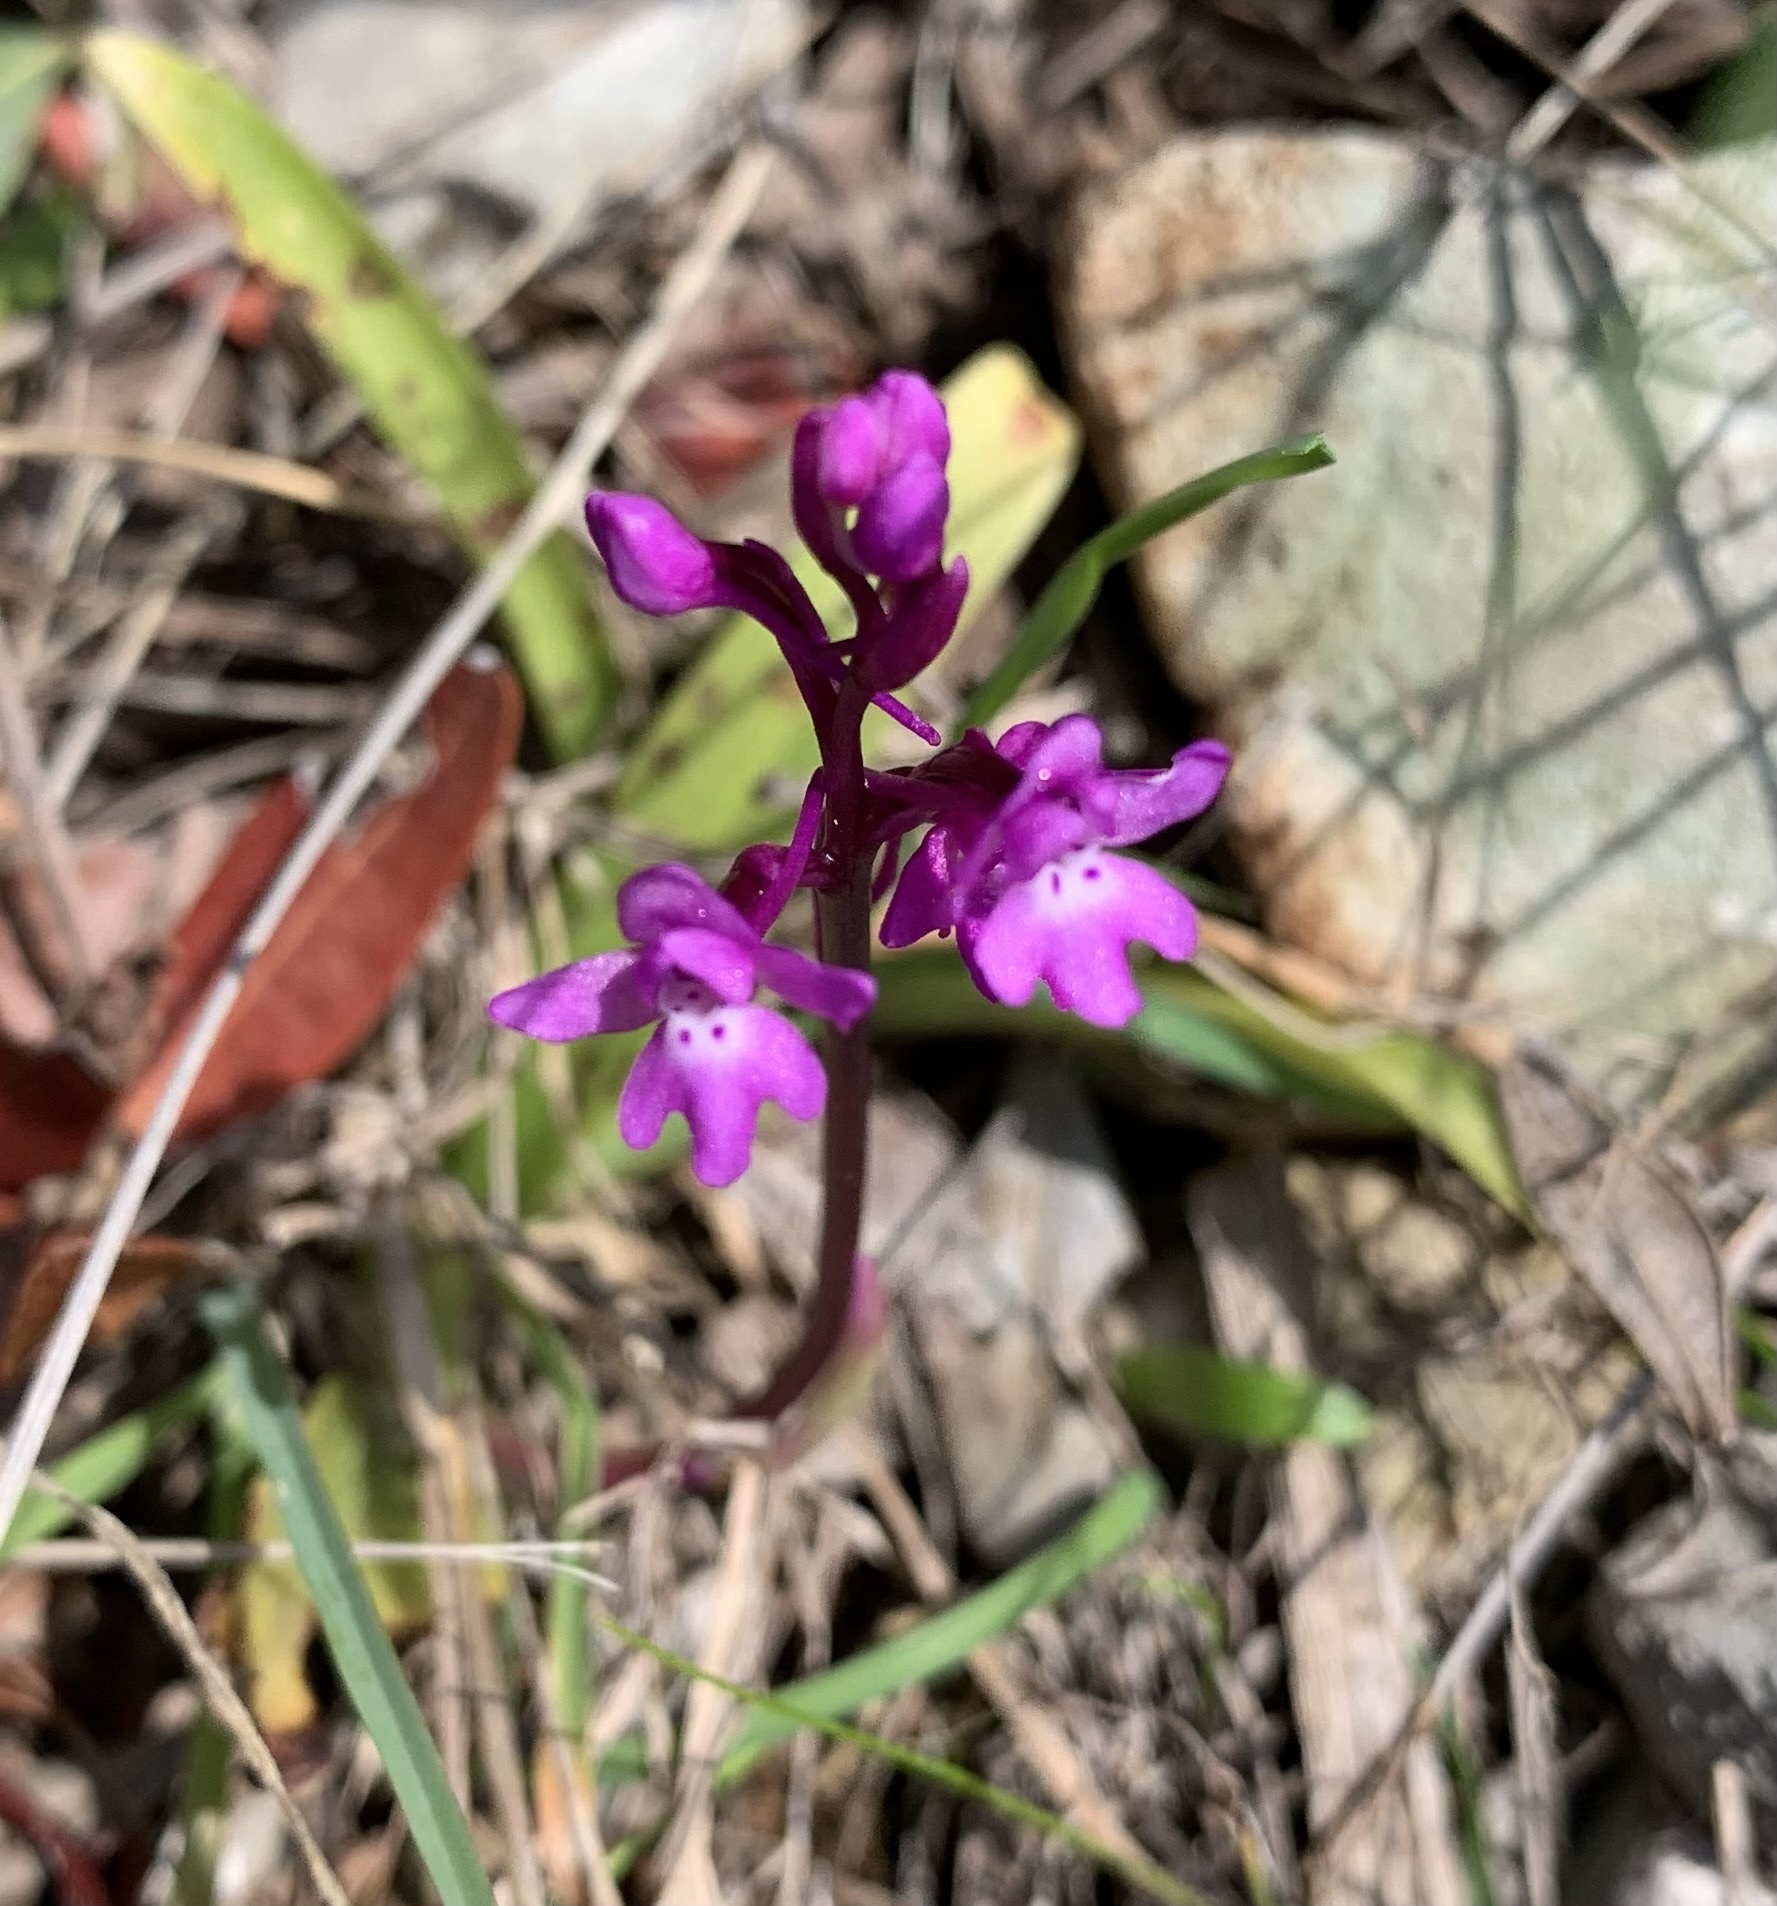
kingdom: Plantae
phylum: Tracheophyta
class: Liliopsida
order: Asparagales
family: Orchidaceae
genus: Orchis
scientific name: Orchis quadripunctata
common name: Four-spotted orchid
